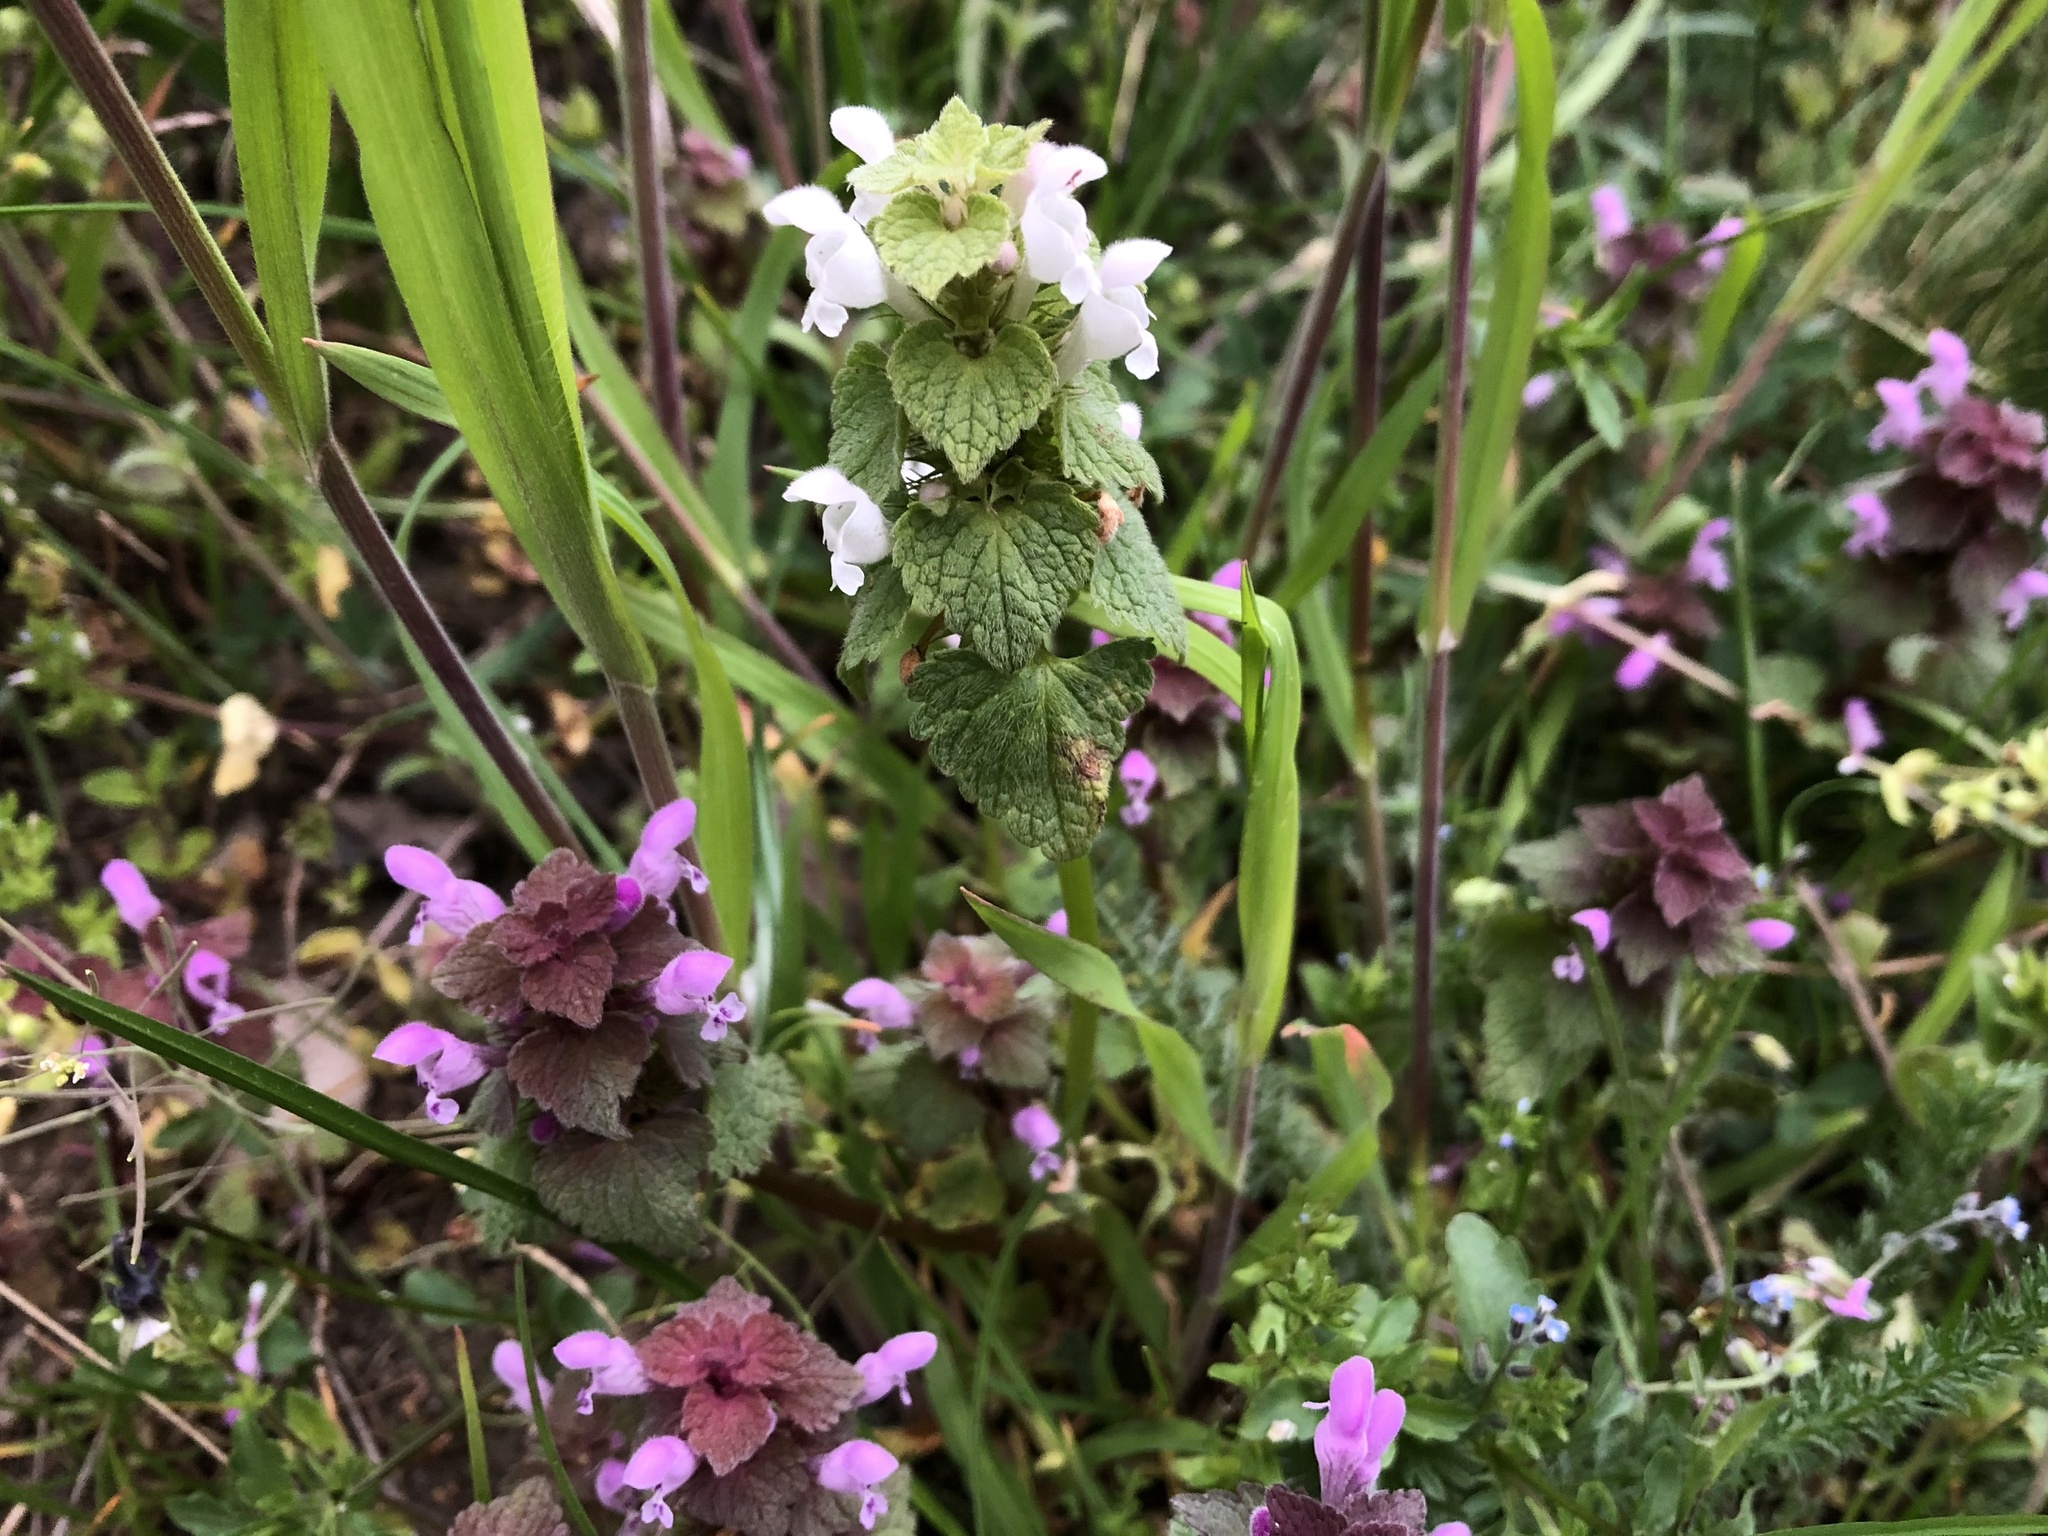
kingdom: Plantae
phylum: Tracheophyta
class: Magnoliopsida
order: Lamiales
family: Lamiaceae
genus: Lamium
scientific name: Lamium purpureum
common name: Red dead-nettle
